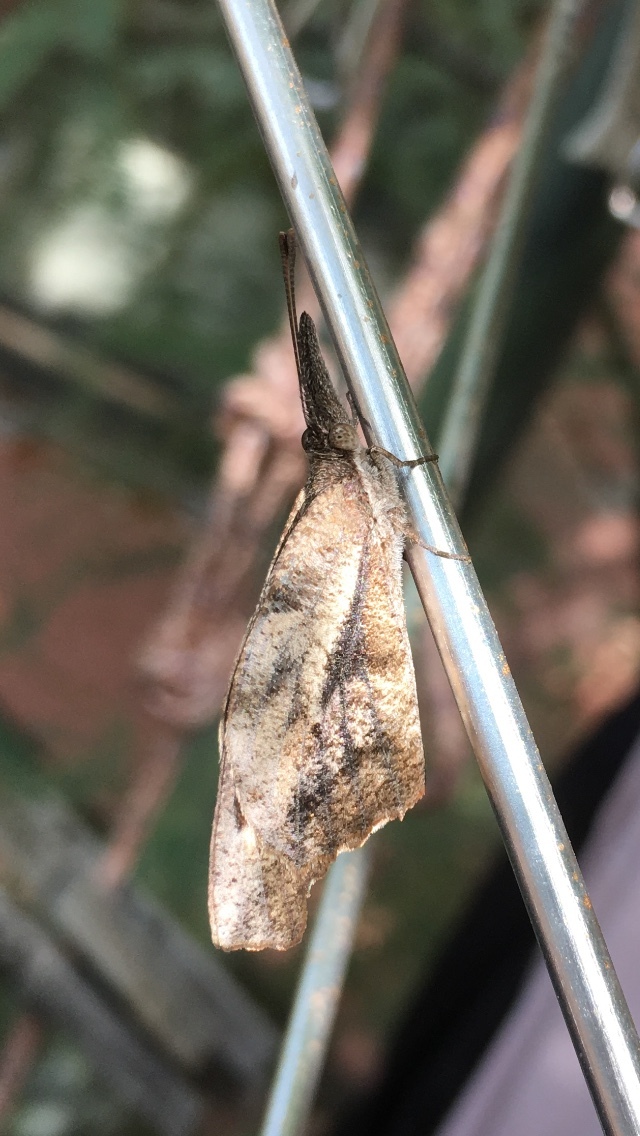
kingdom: Animalia
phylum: Arthropoda
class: Insecta
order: Lepidoptera
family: Nymphalidae
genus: Libytheana
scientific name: Libytheana carinenta
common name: American snout
